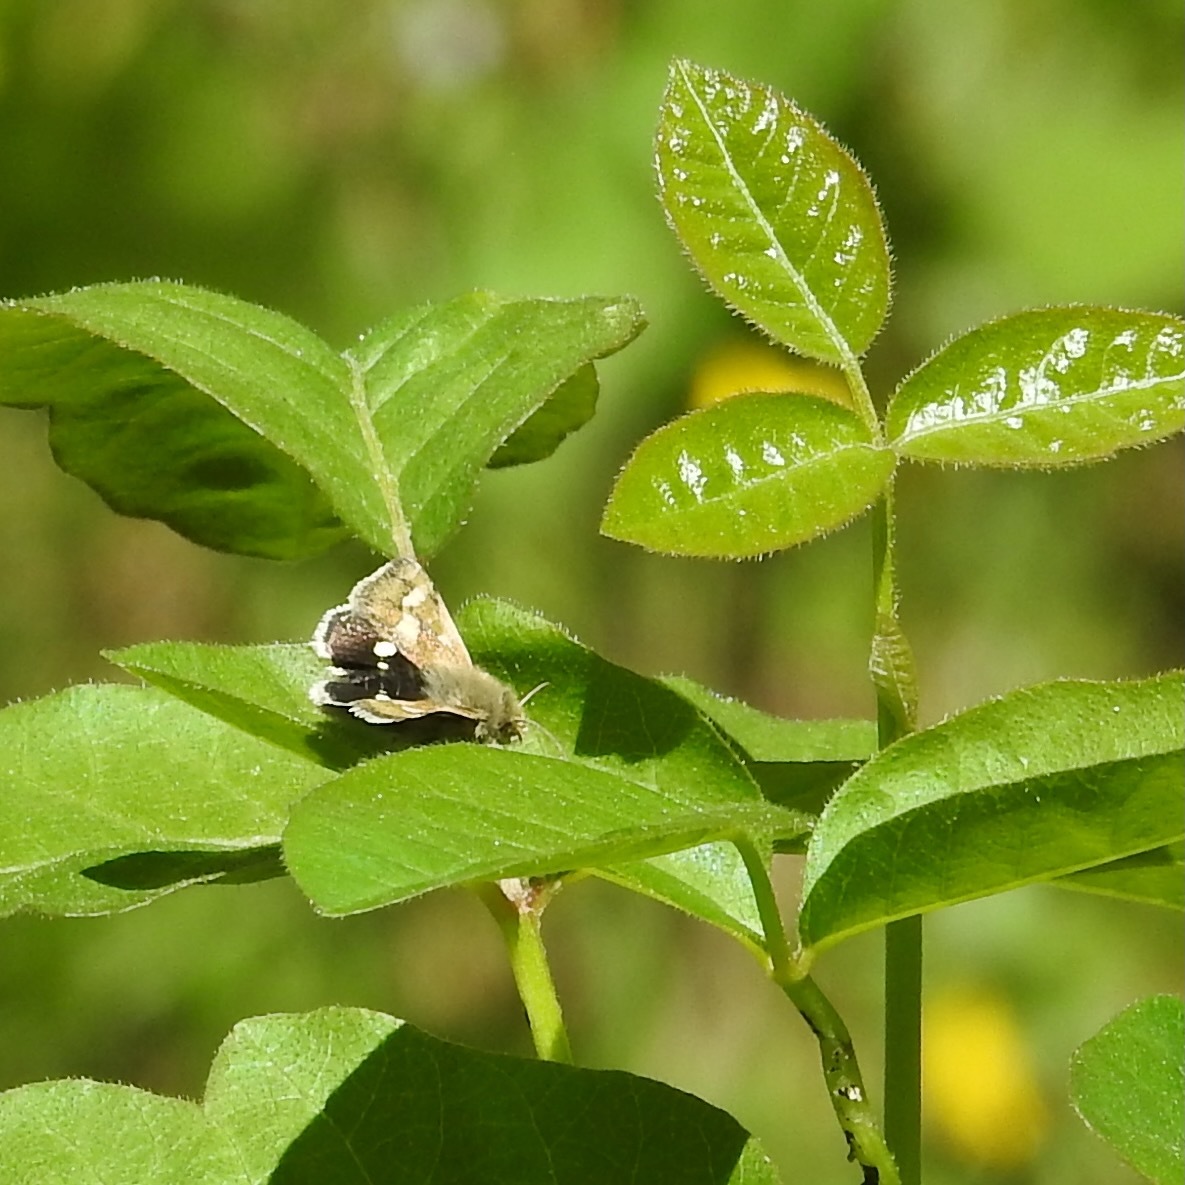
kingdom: Animalia
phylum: Arthropoda
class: Insecta
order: Lepidoptera
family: Noctuidae
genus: Heliothodes
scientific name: Heliothodes diminutiva
